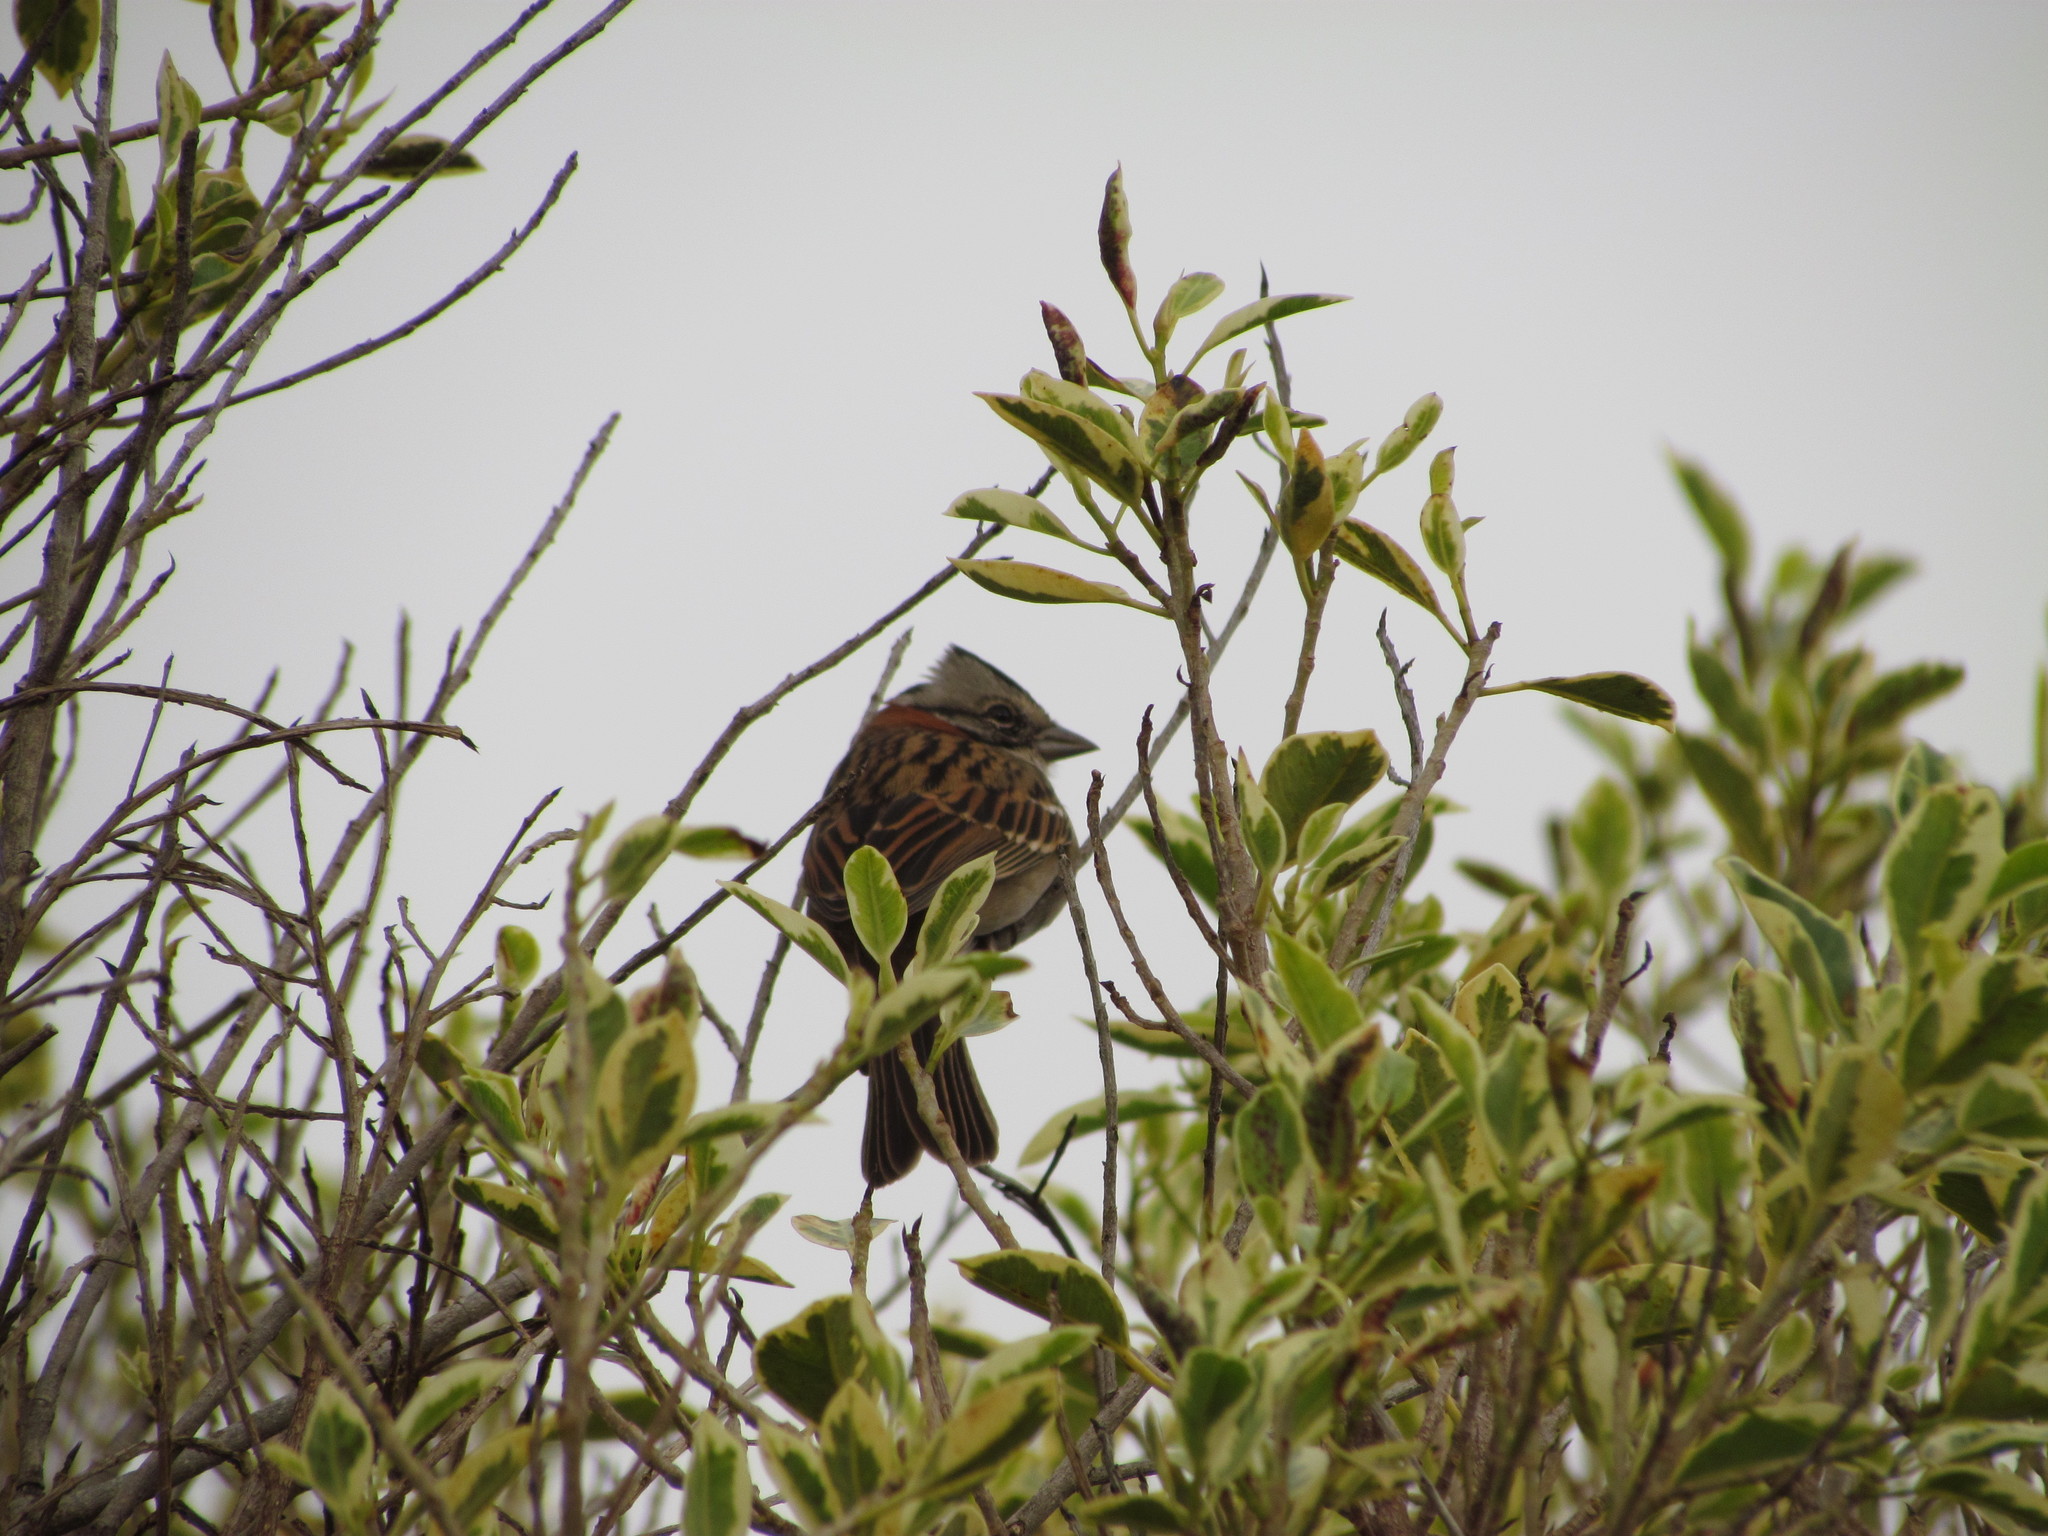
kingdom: Animalia
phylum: Chordata
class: Aves
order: Passeriformes
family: Passerellidae
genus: Zonotrichia
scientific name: Zonotrichia capensis
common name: Rufous-collared sparrow
